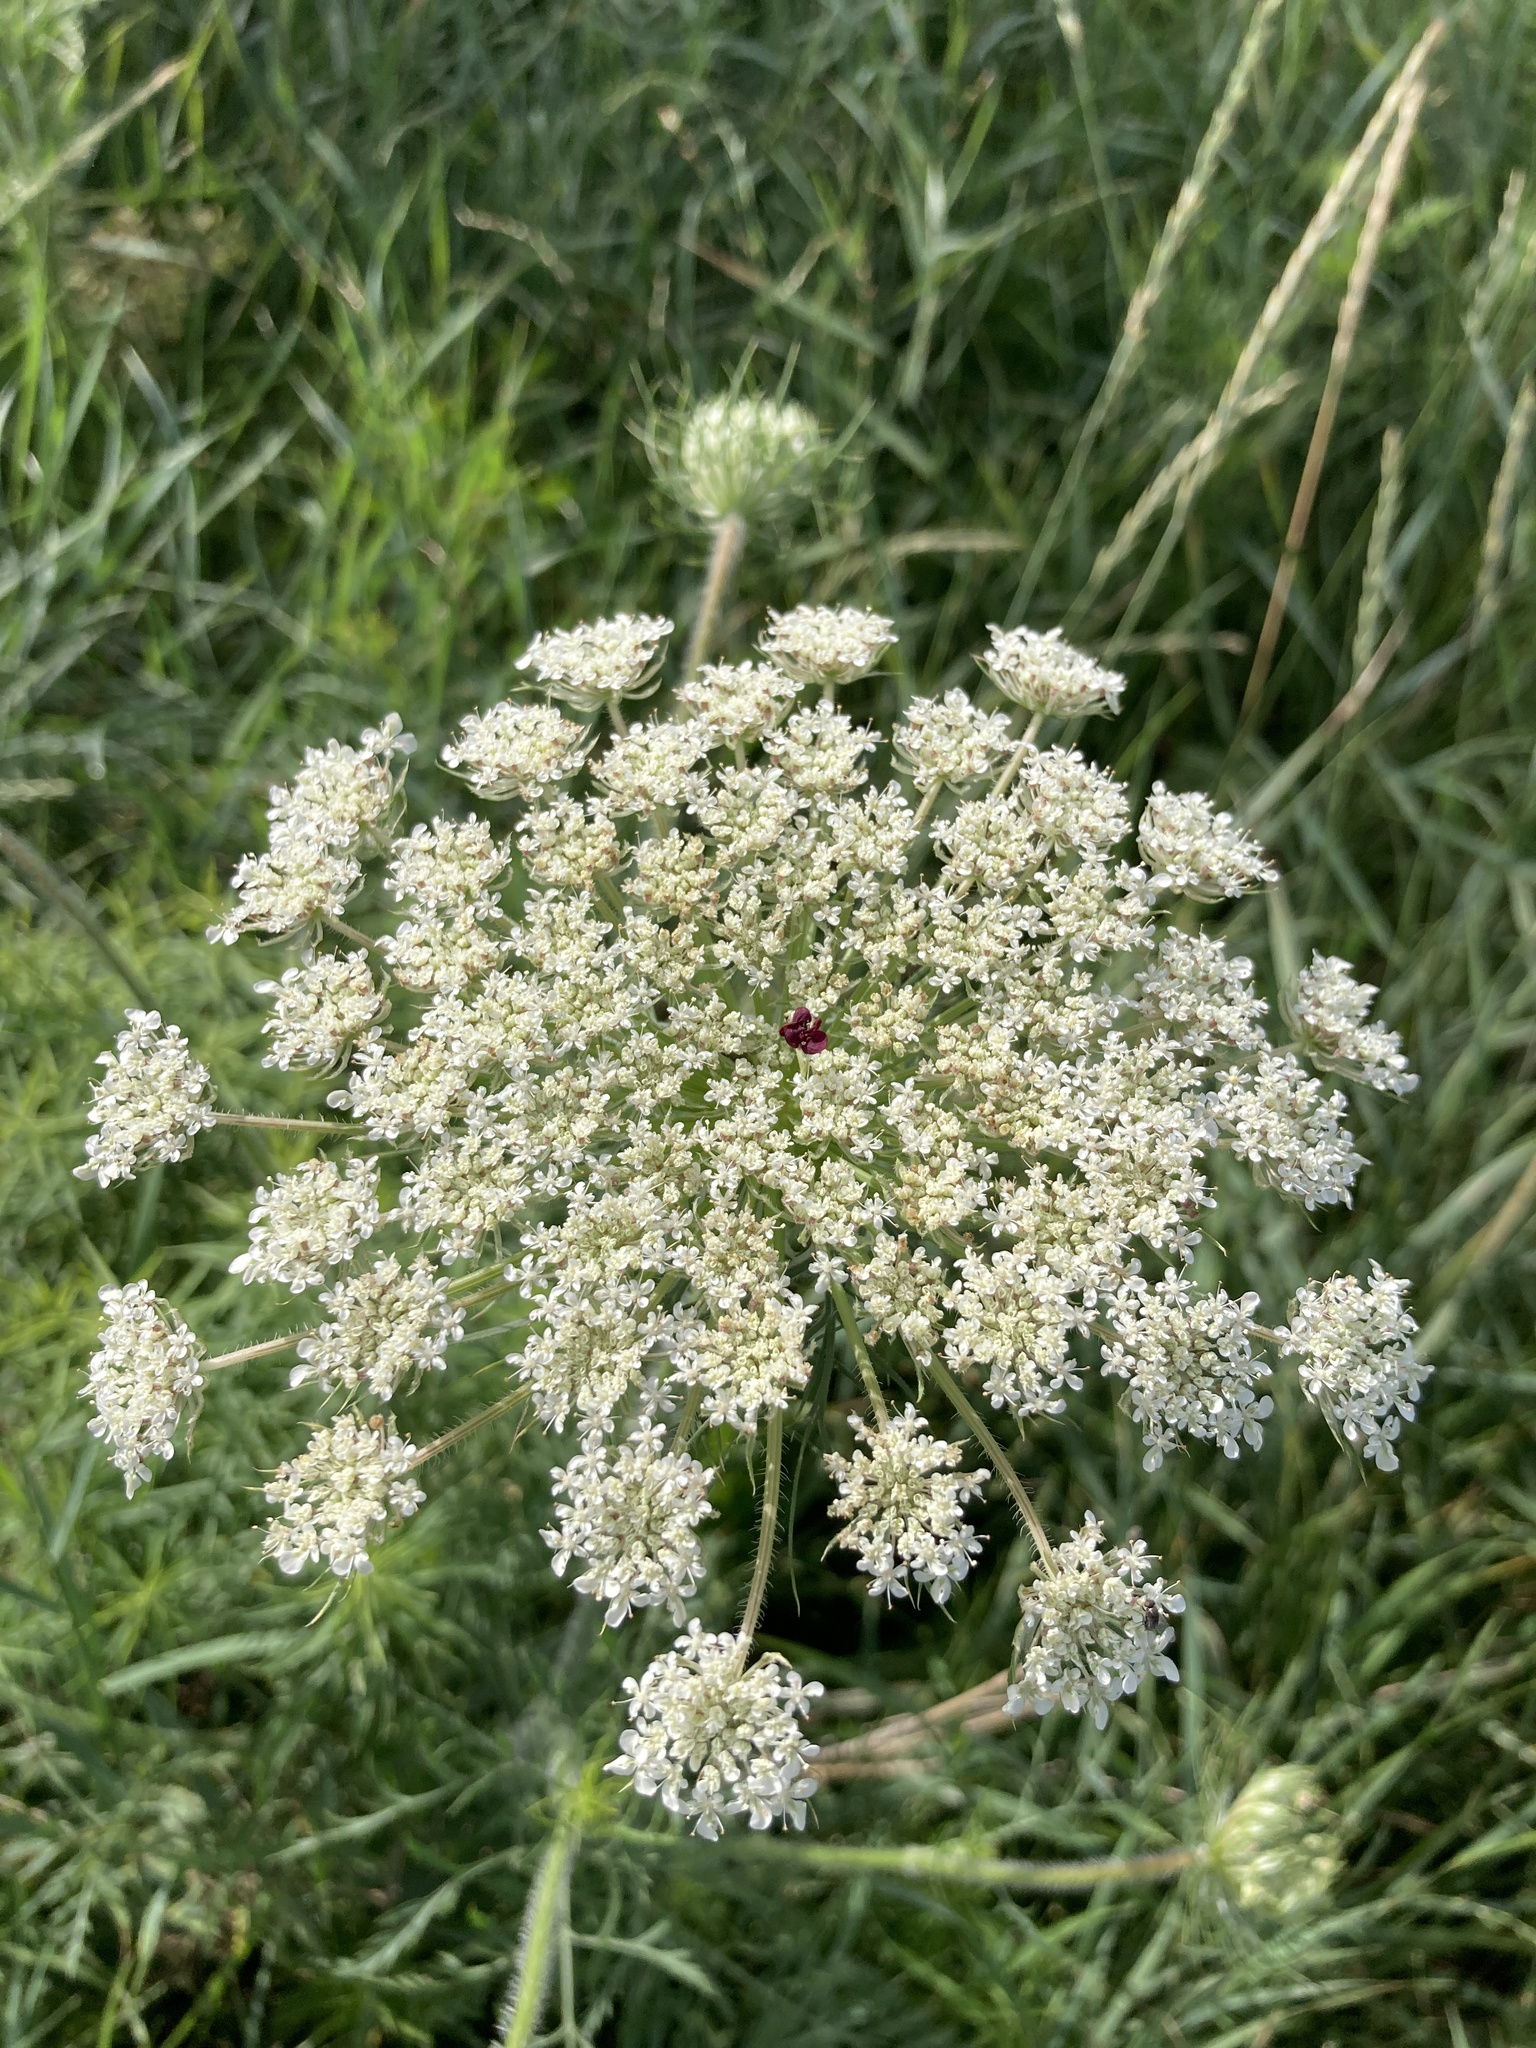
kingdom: Plantae
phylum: Tracheophyta
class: Magnoliopsida
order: Apiales
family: Apiaceae
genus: Daucus
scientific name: Daucus carota
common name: Wild carrot
